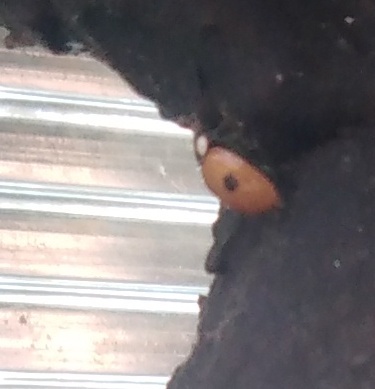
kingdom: Animalia
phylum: Arthropoda
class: Insecta
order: Coleoptera
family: Coccinellidae
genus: Adalia
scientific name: Adalia bipunctata
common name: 2-spot ladybird
